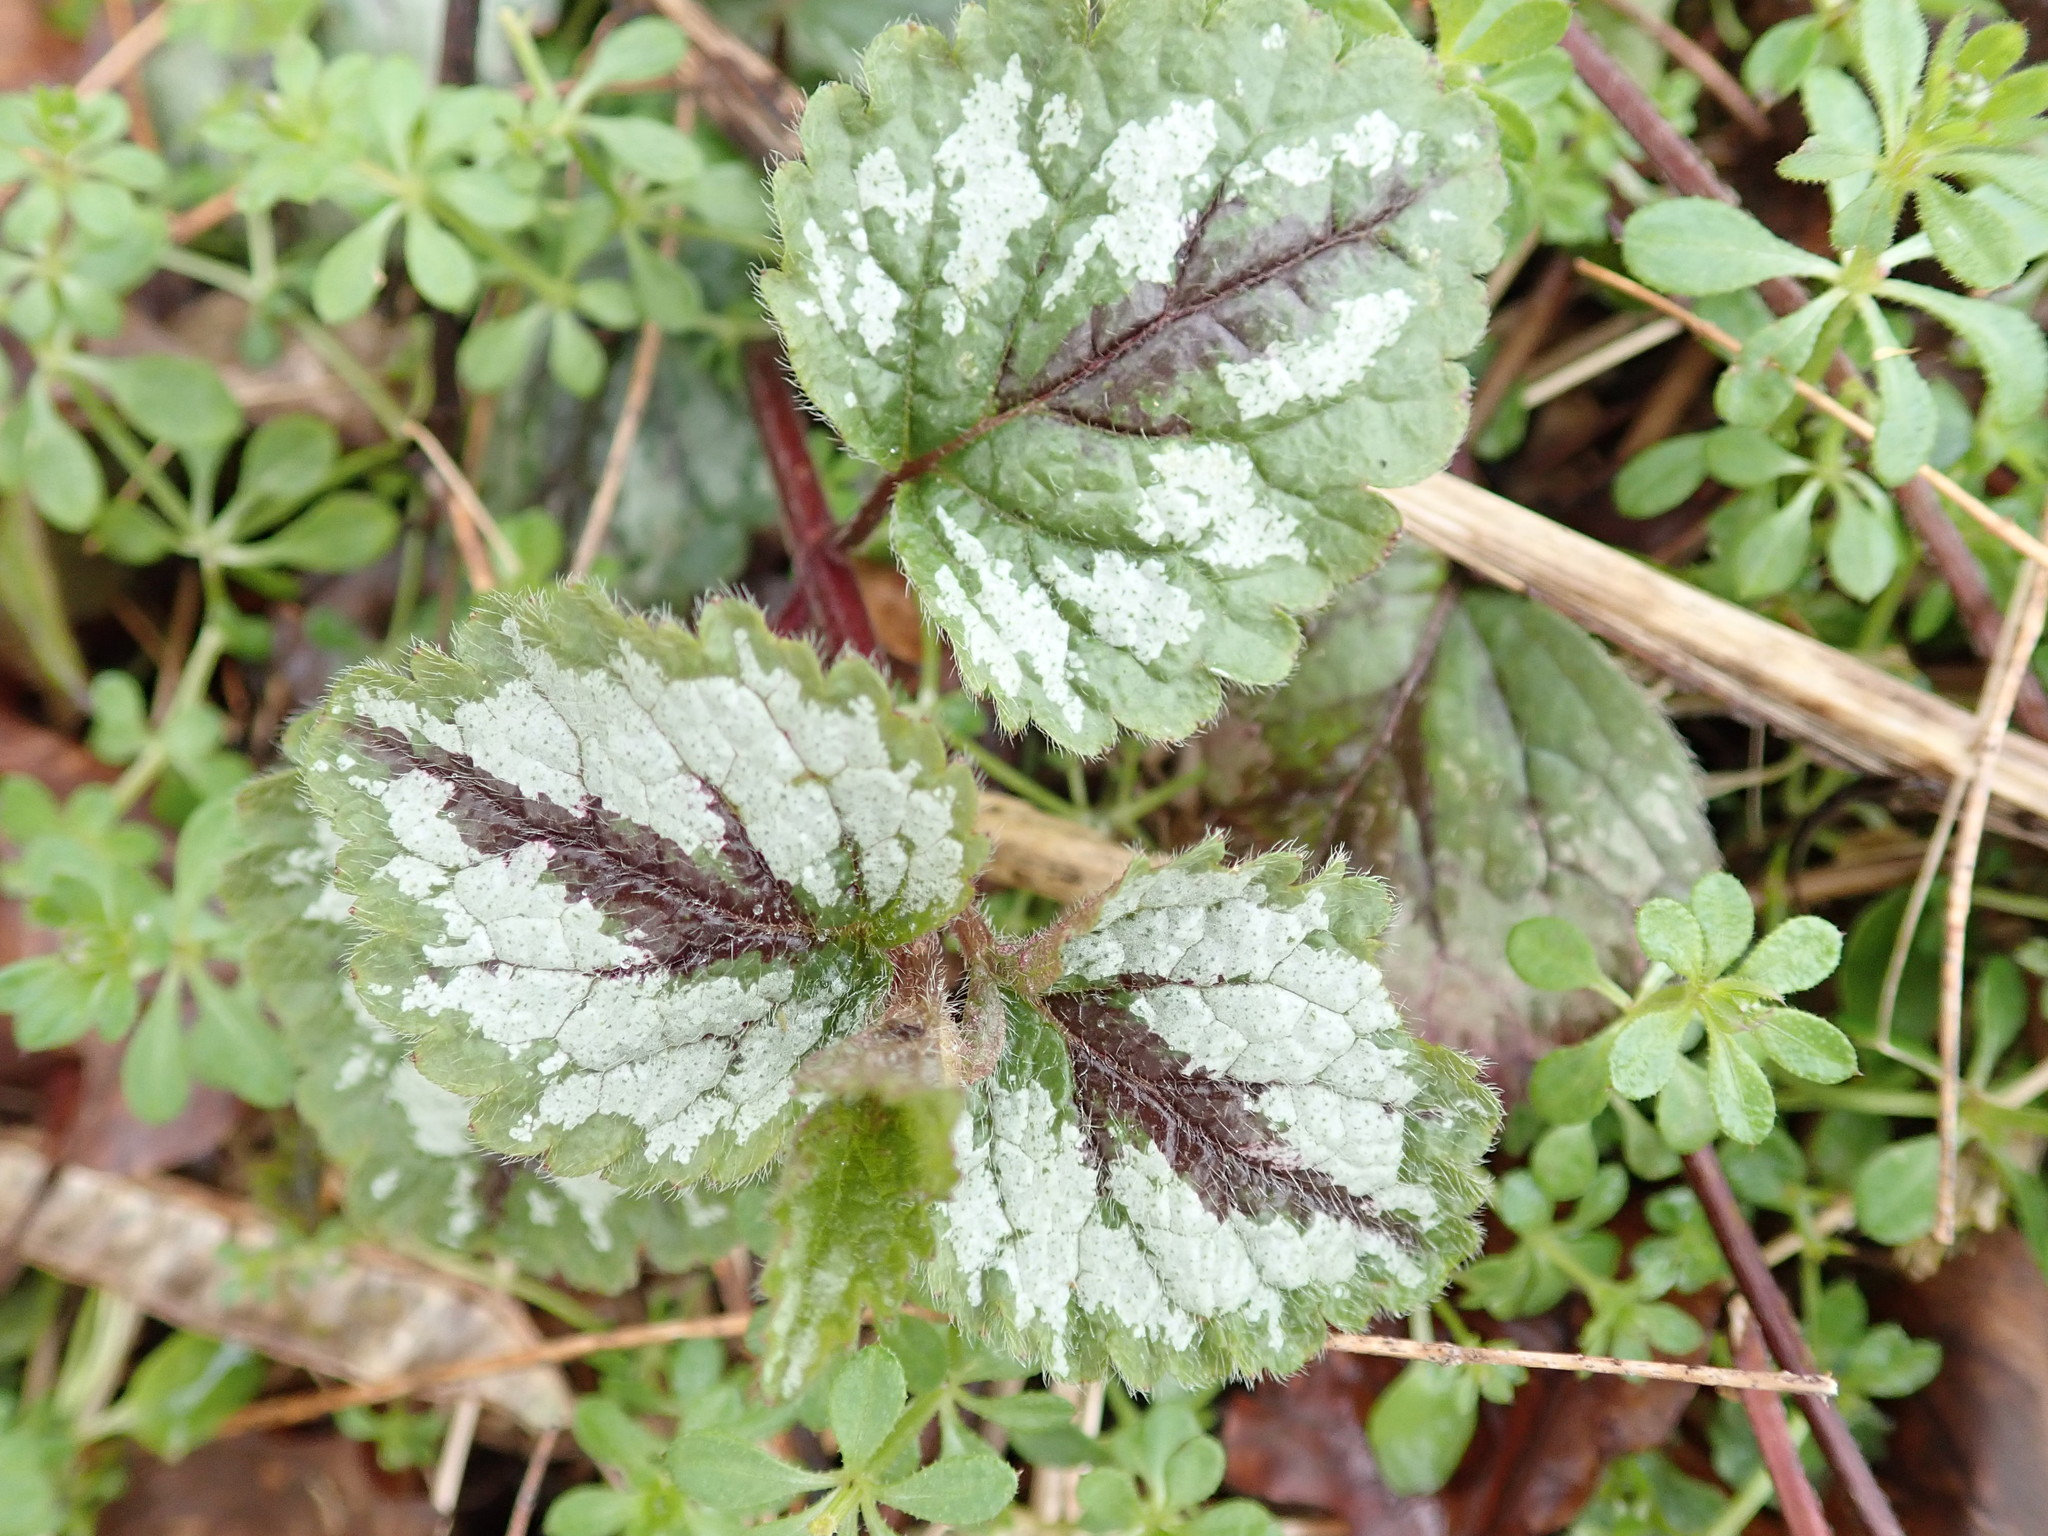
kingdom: Plantae
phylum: Tracheophyta
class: Magnoliopsida
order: Lamiales
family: Lamiaceae
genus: Lamium
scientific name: Lamium galeobdolon
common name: Yellow archangel
